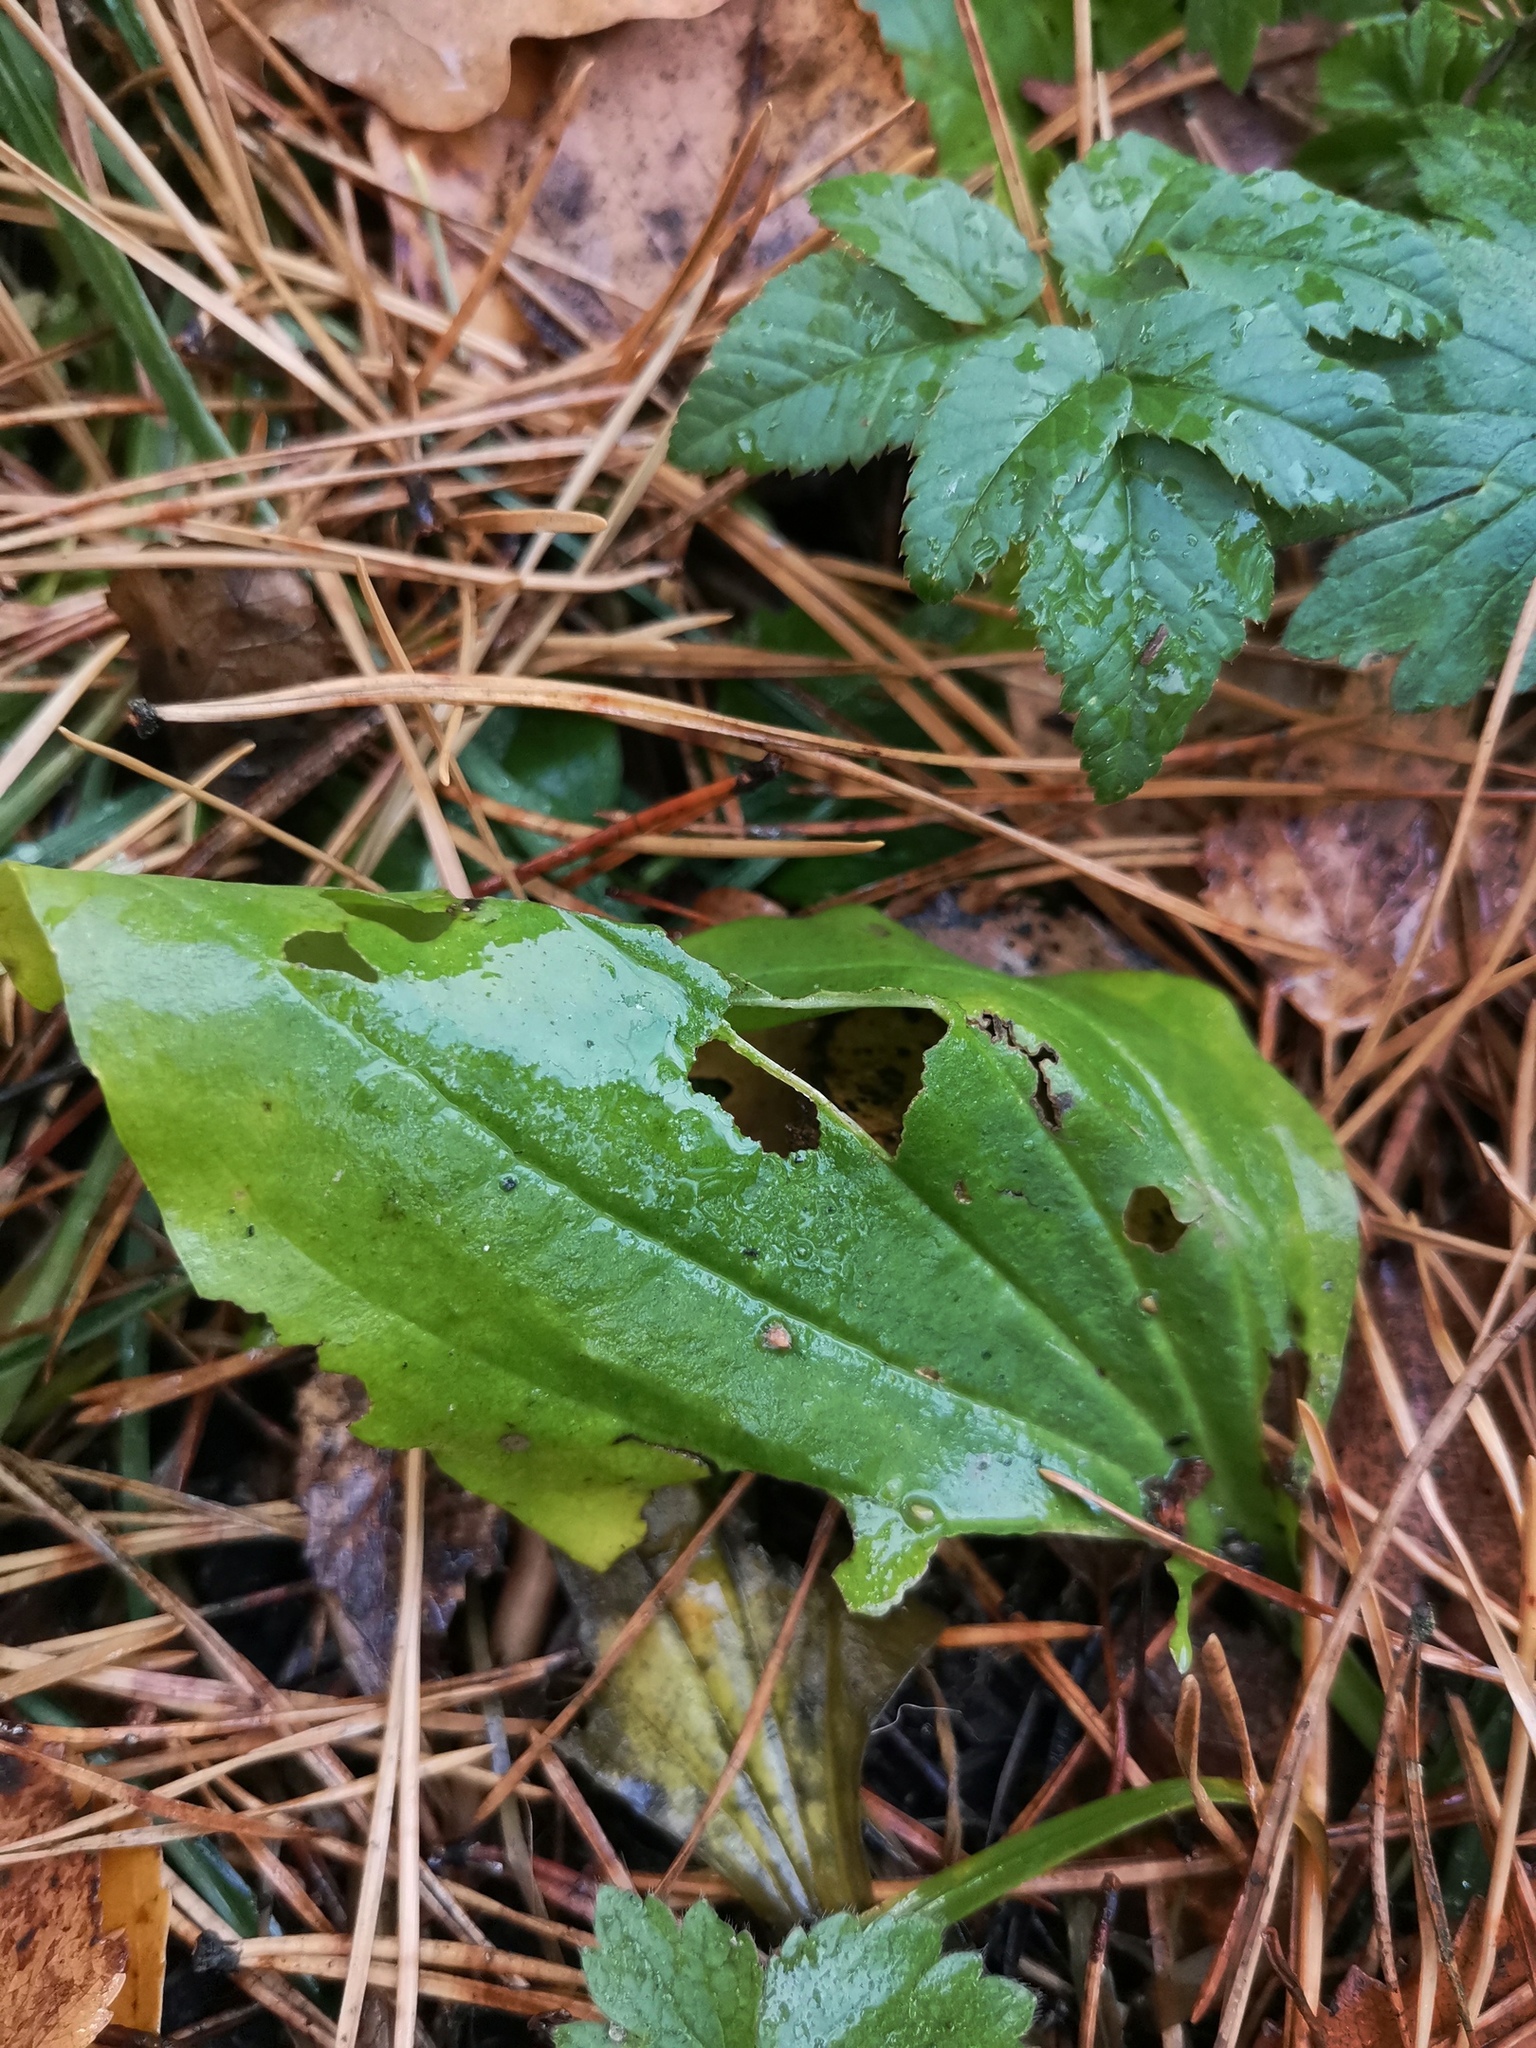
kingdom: Plantae
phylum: Tracheophyta
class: Magnoliopsida
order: Lamiales
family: Plantaginaceae
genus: Plantago
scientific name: Plantago major
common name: Common plantain
